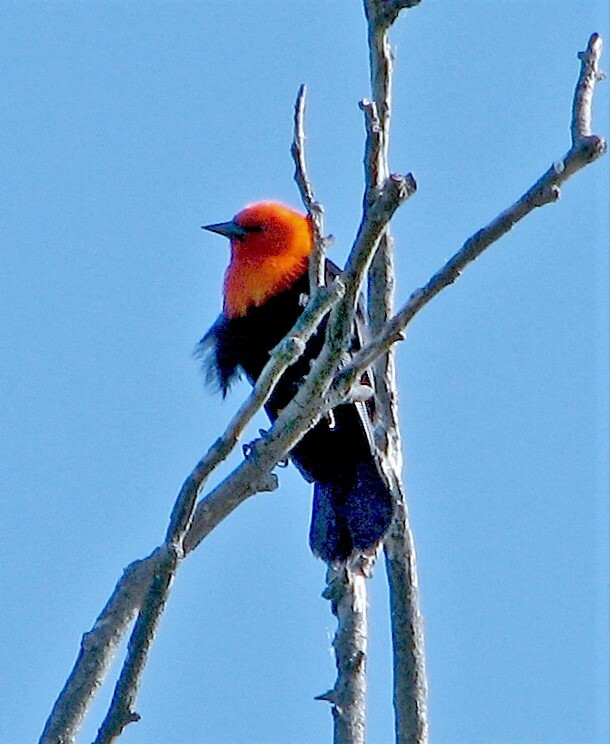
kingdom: Animalia
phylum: Chordata
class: Aves
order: Passeriformes
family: Icteridae
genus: Amblyramphus
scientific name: Amblyramphus holosericeus
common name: Scarlet-headed blackbird
